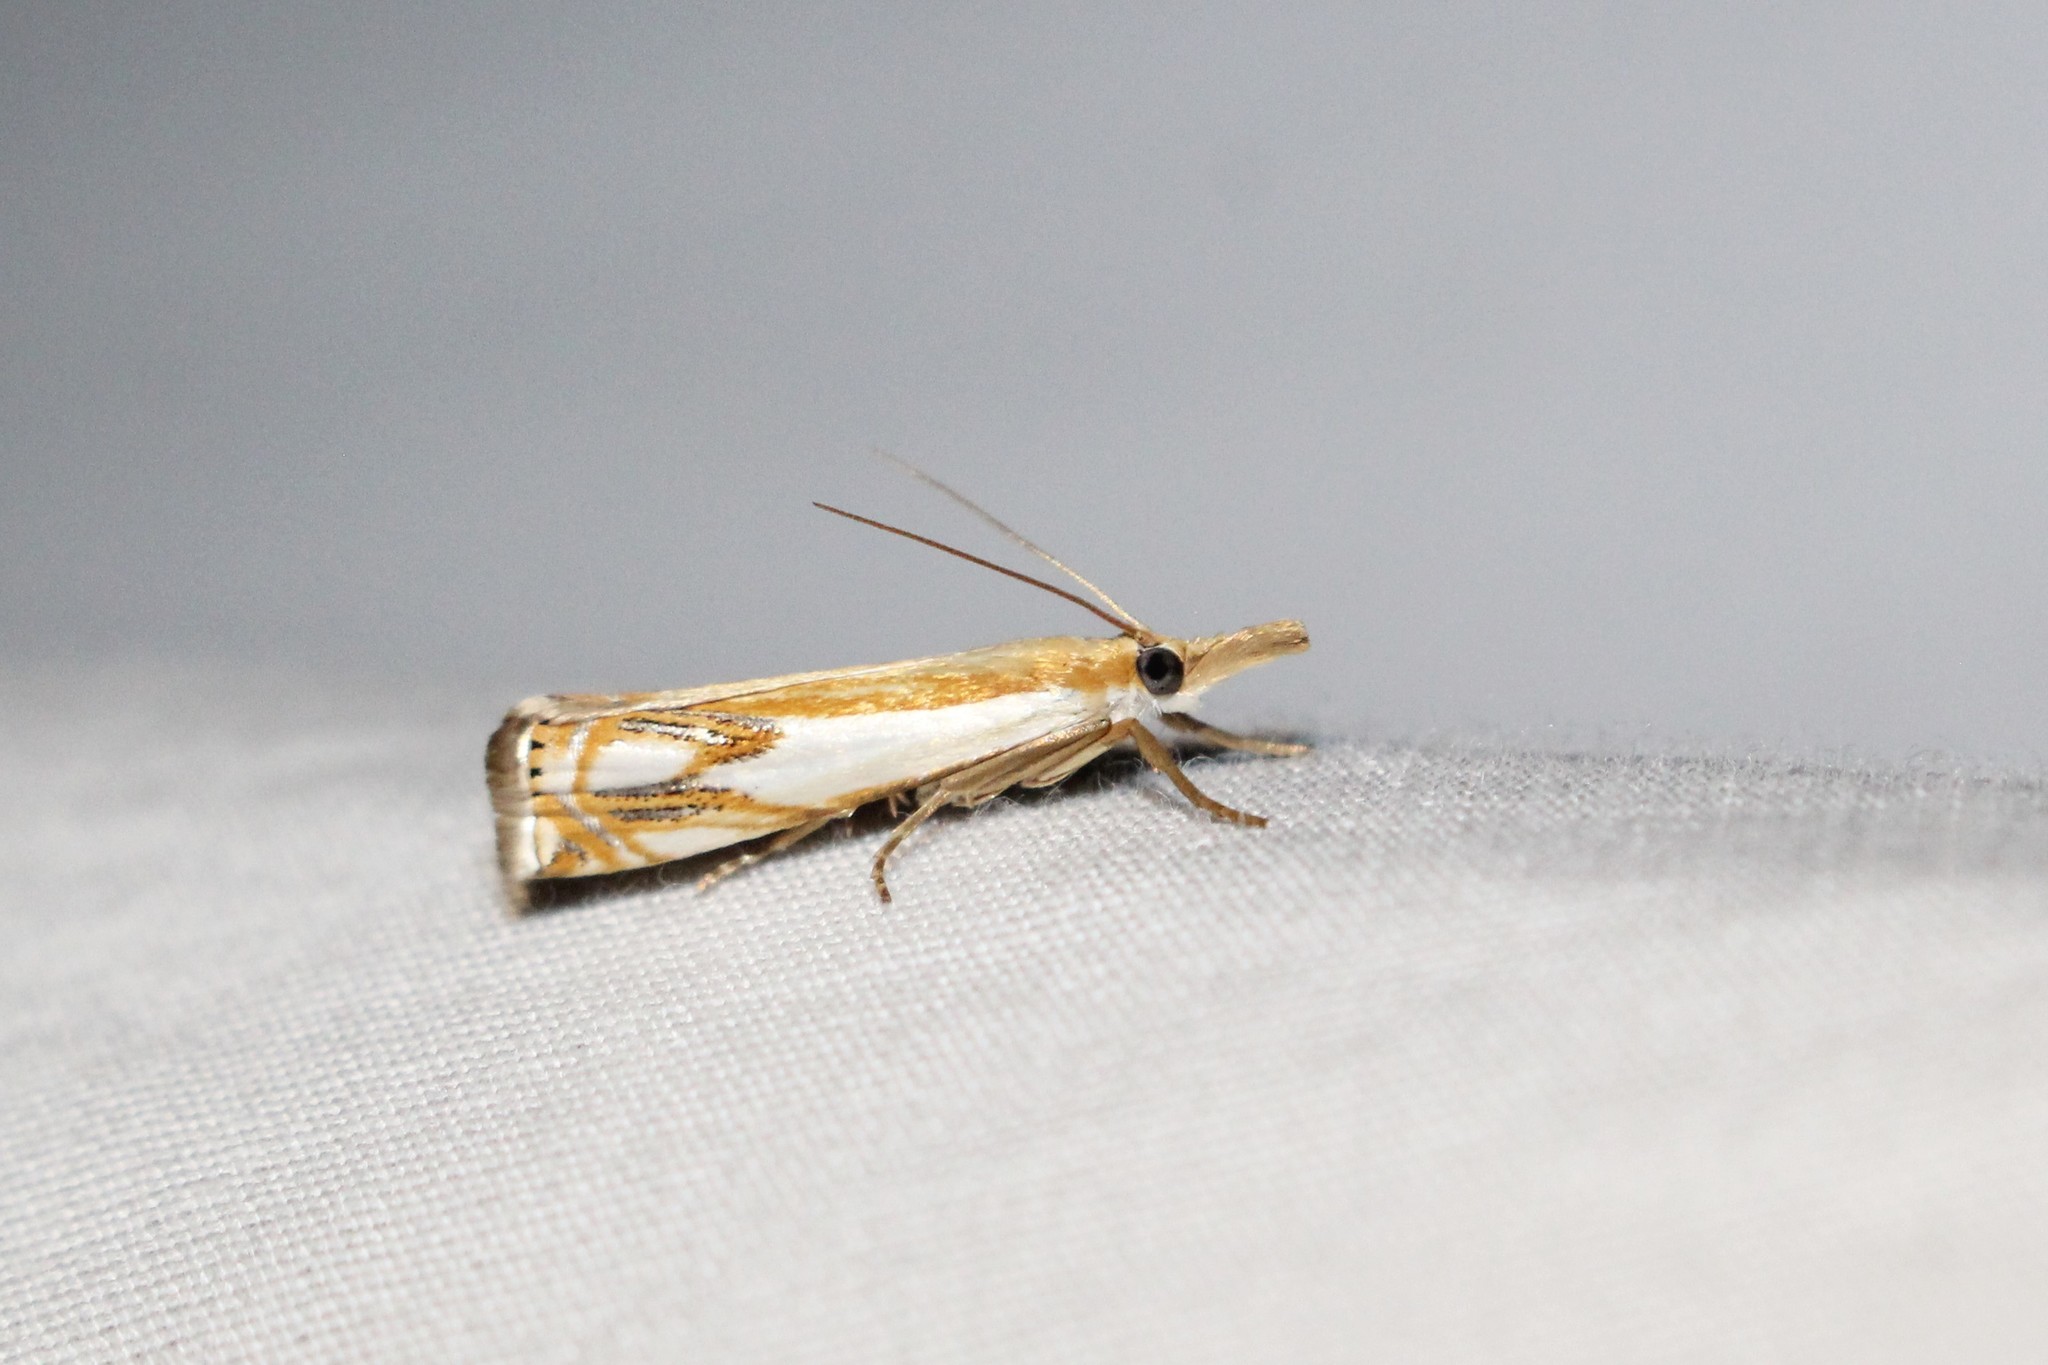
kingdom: Animalia
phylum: Arthropoda
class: Insecta
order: Lepidoptera
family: Crambidae
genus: Crambus
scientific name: Crambus agitatellus
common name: Double-banded grass-veneer
